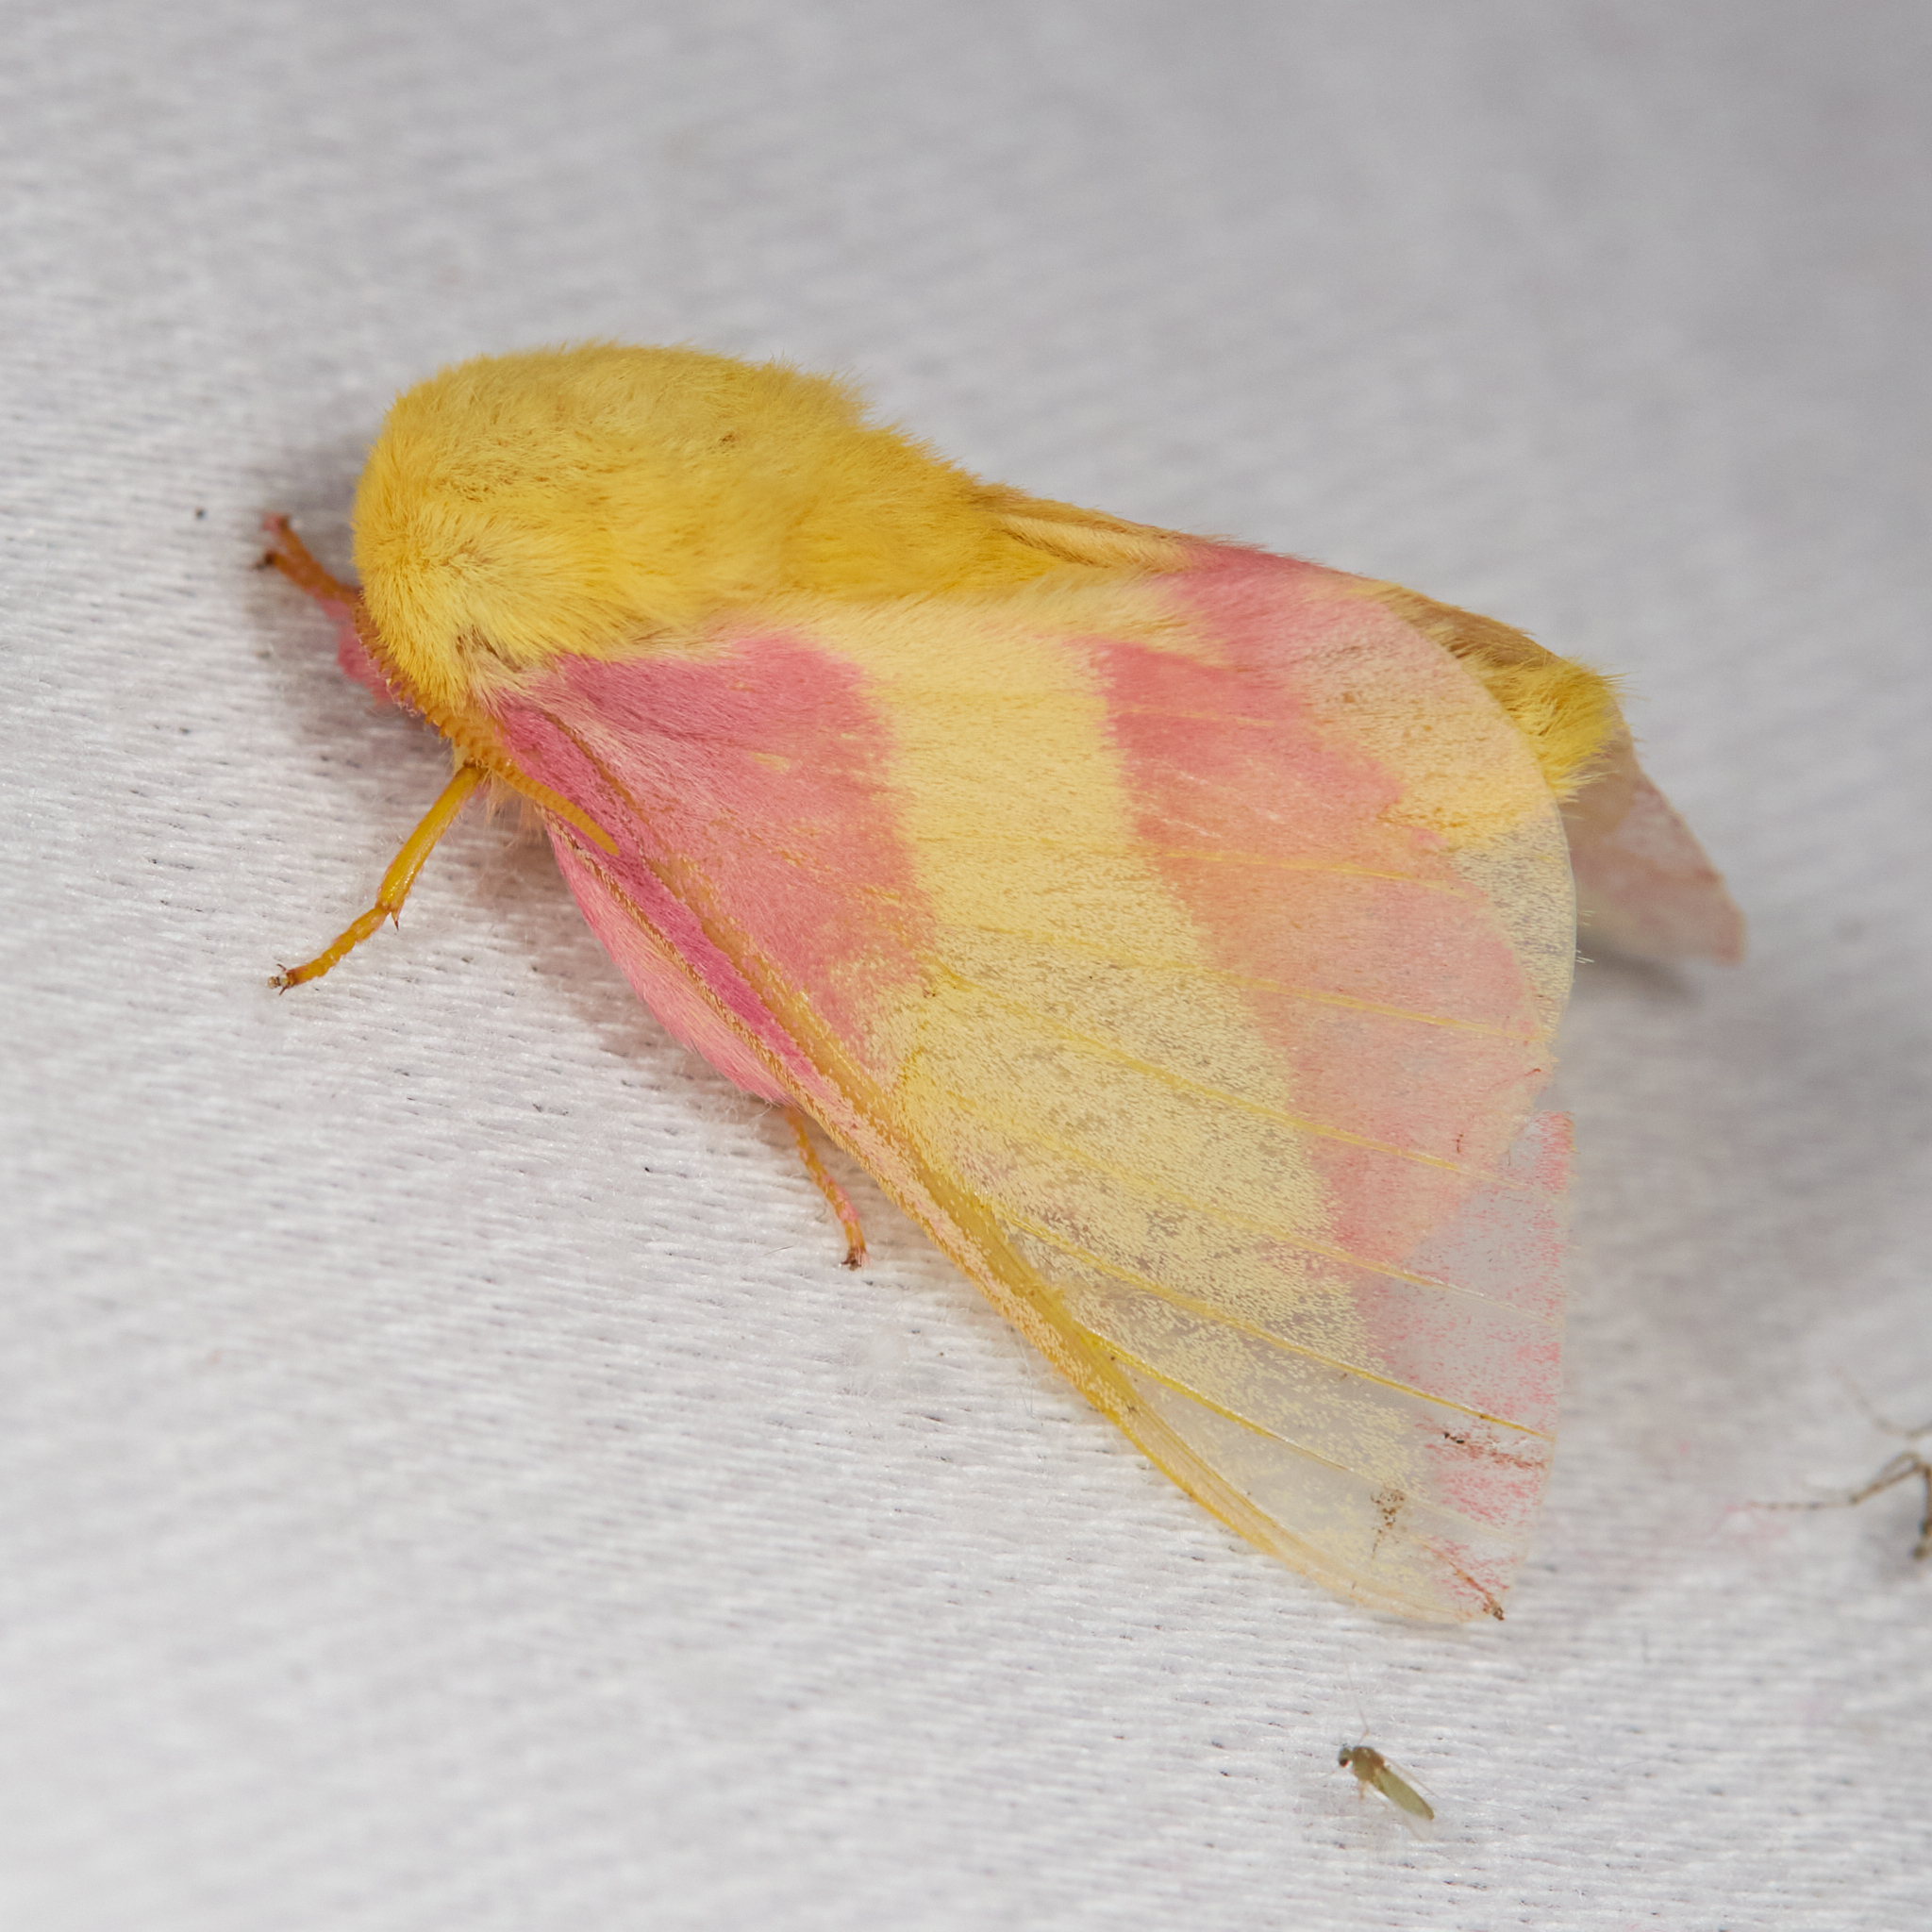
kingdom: Animalia
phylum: Arthropoda
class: Insecta
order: Lepidoptera
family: Saturniidae
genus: Dryocampa
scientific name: Dryocampa rubicunda
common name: Rosy maple moth
